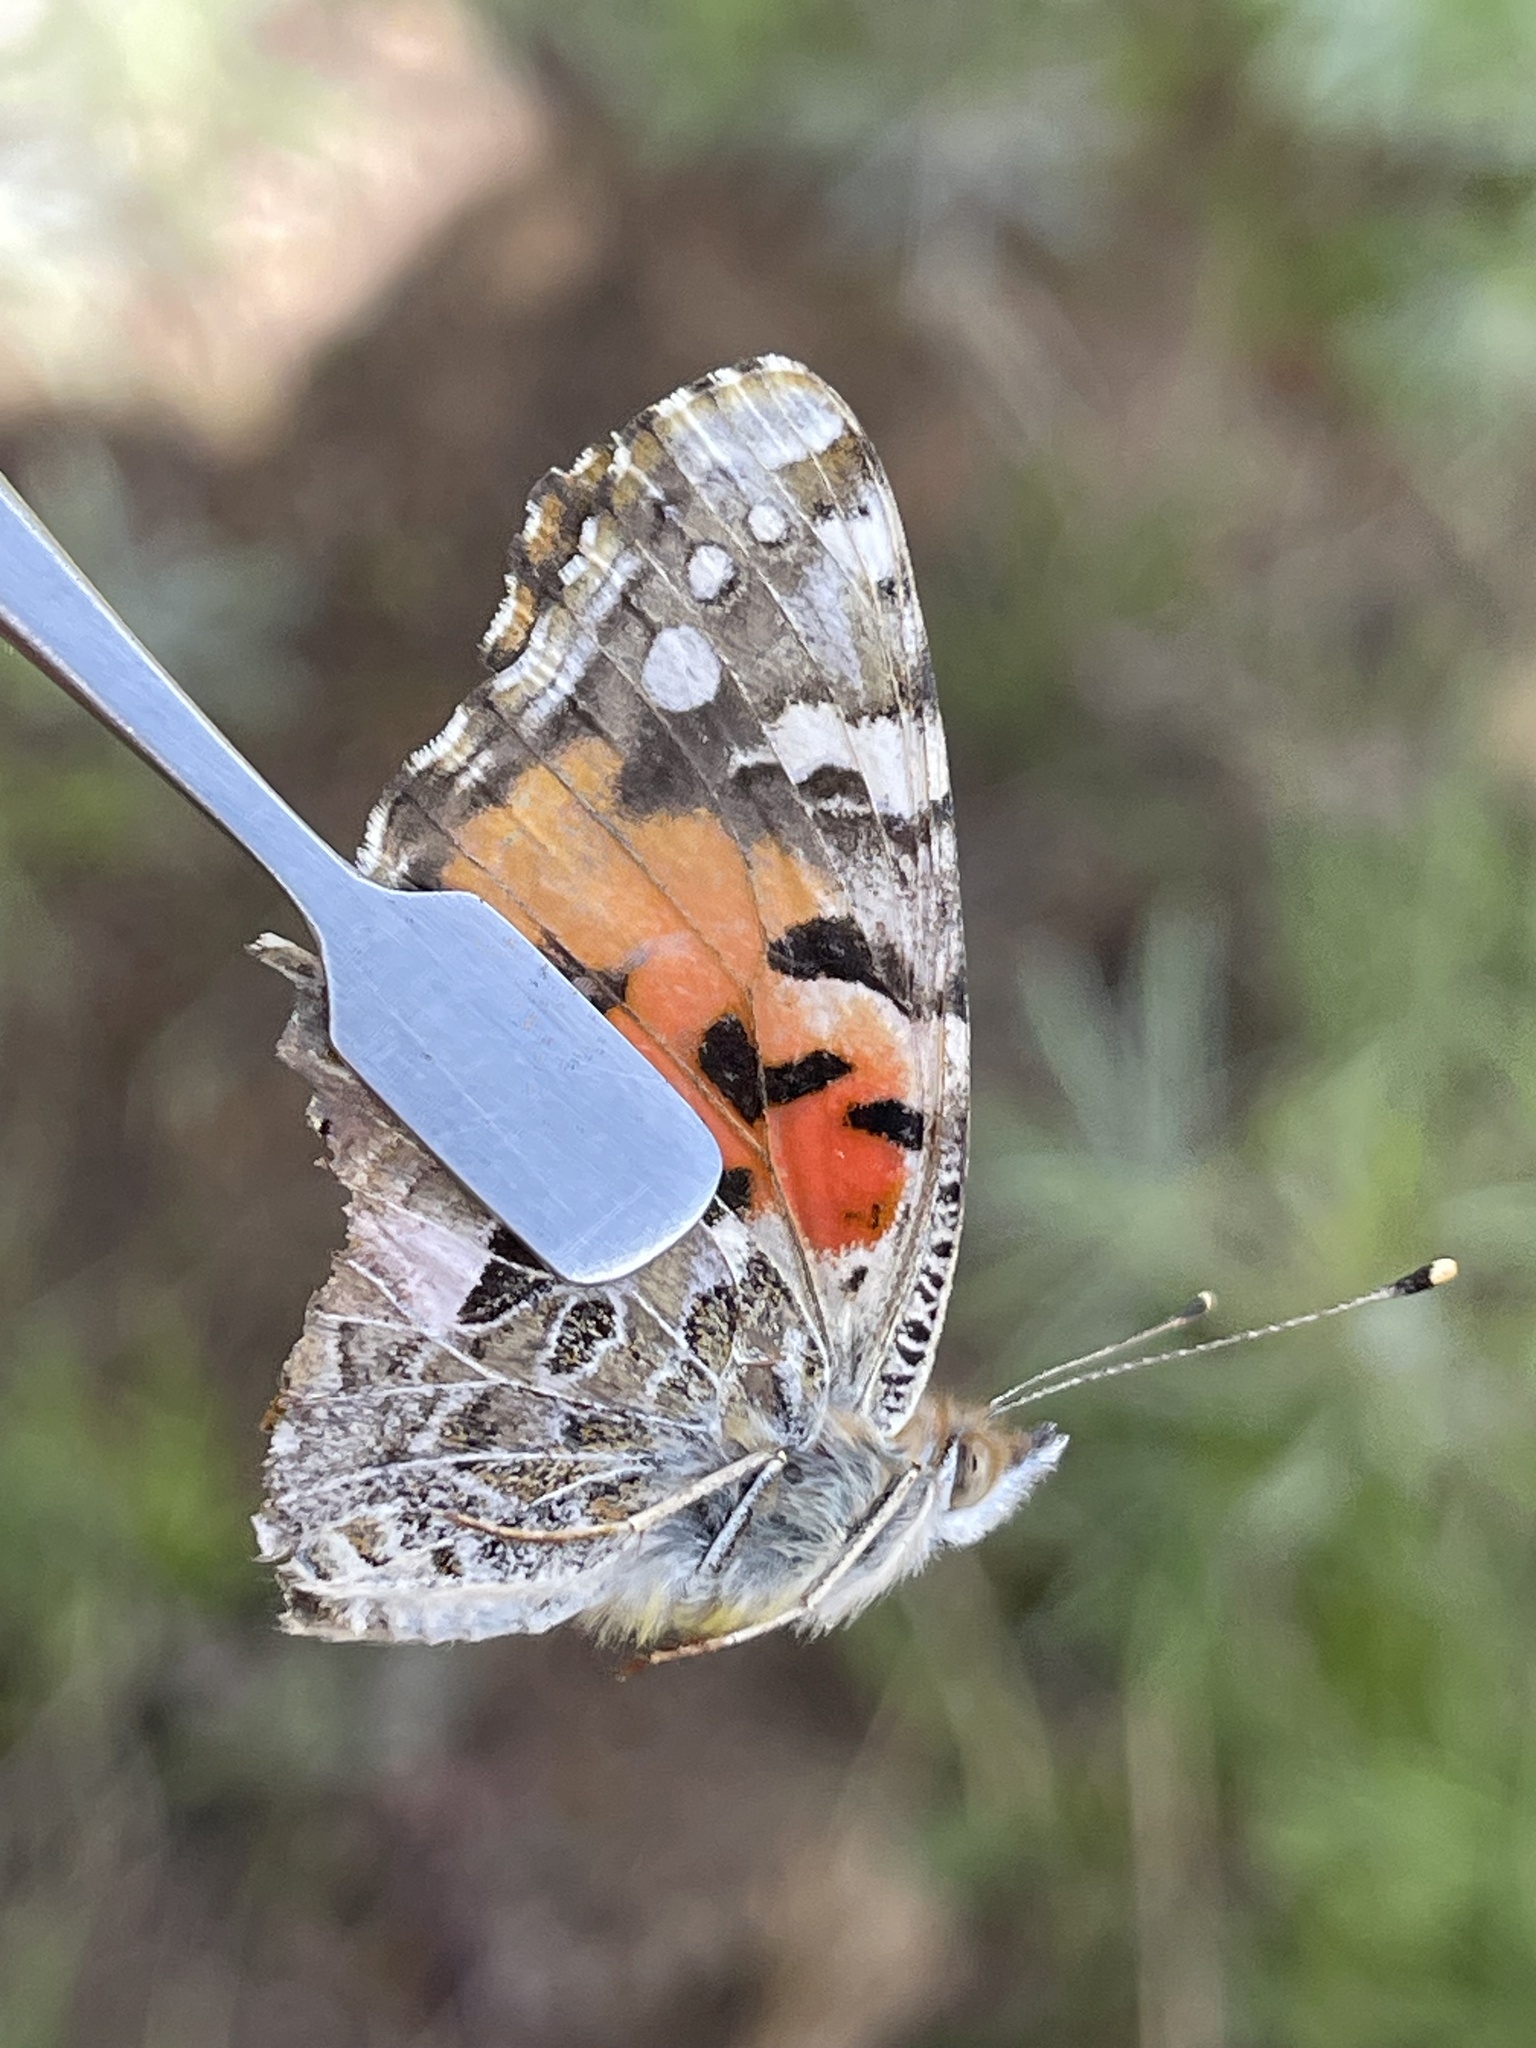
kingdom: Animalia
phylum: Arthropoda
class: Insecta
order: Lepidoptera
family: Nymphalidae
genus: Vanessa
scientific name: Vanessa cardui
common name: Painted lady
